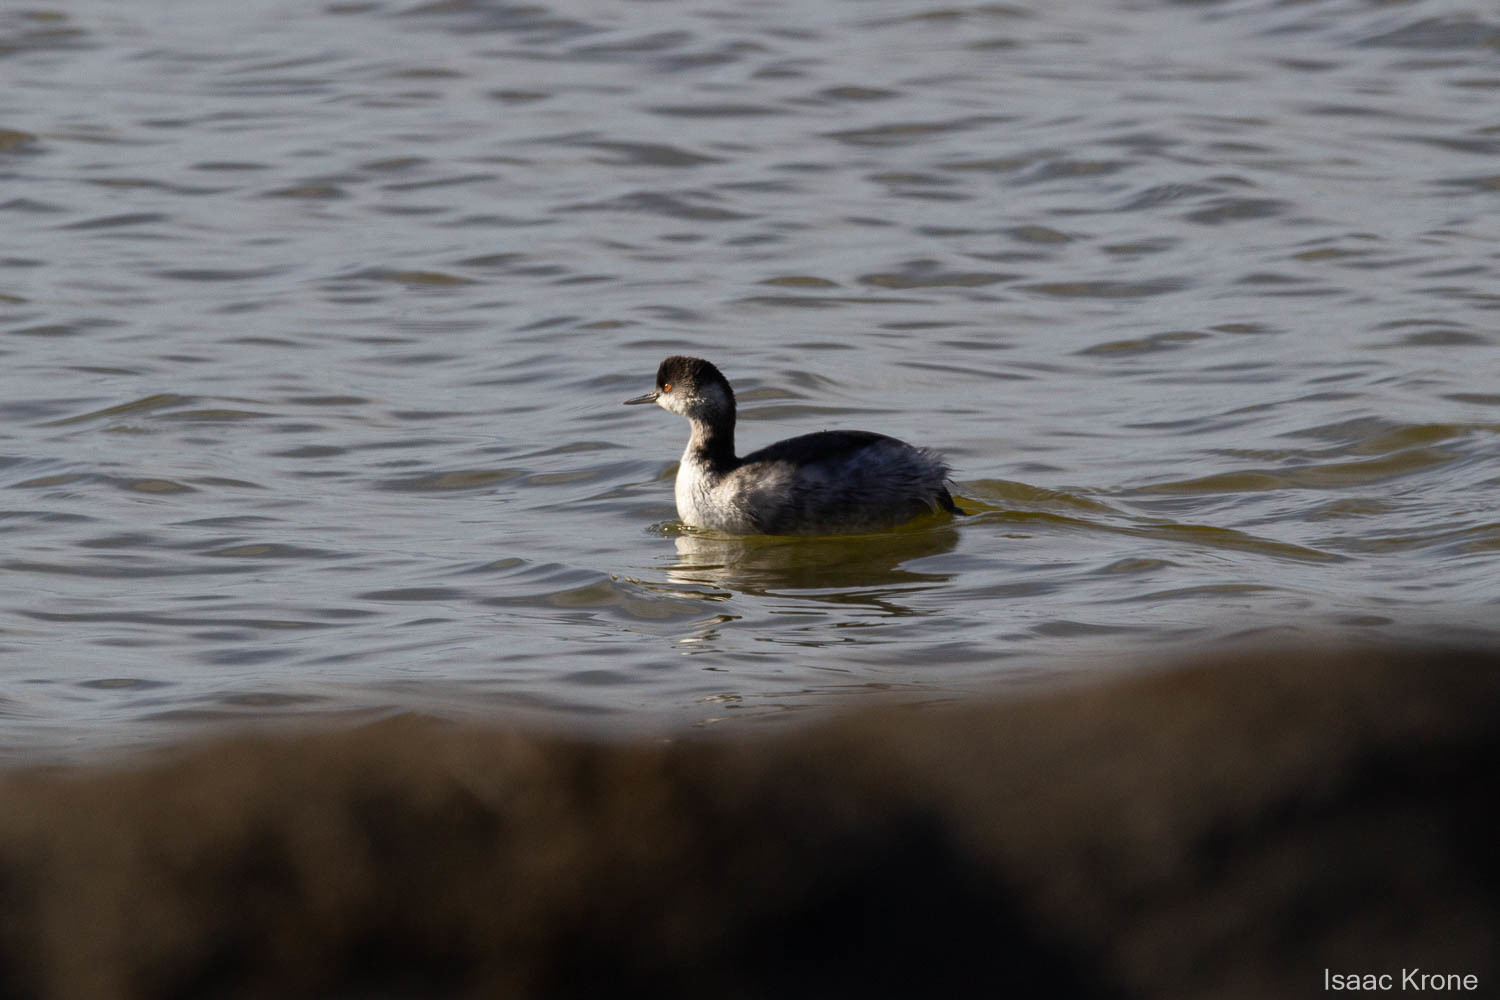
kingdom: Animalia
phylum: Chordata
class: Aves
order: Podicipediformes
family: Podicipedidae
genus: Podiceps
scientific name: Podiceps nigricollis
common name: Black-necked grebe
